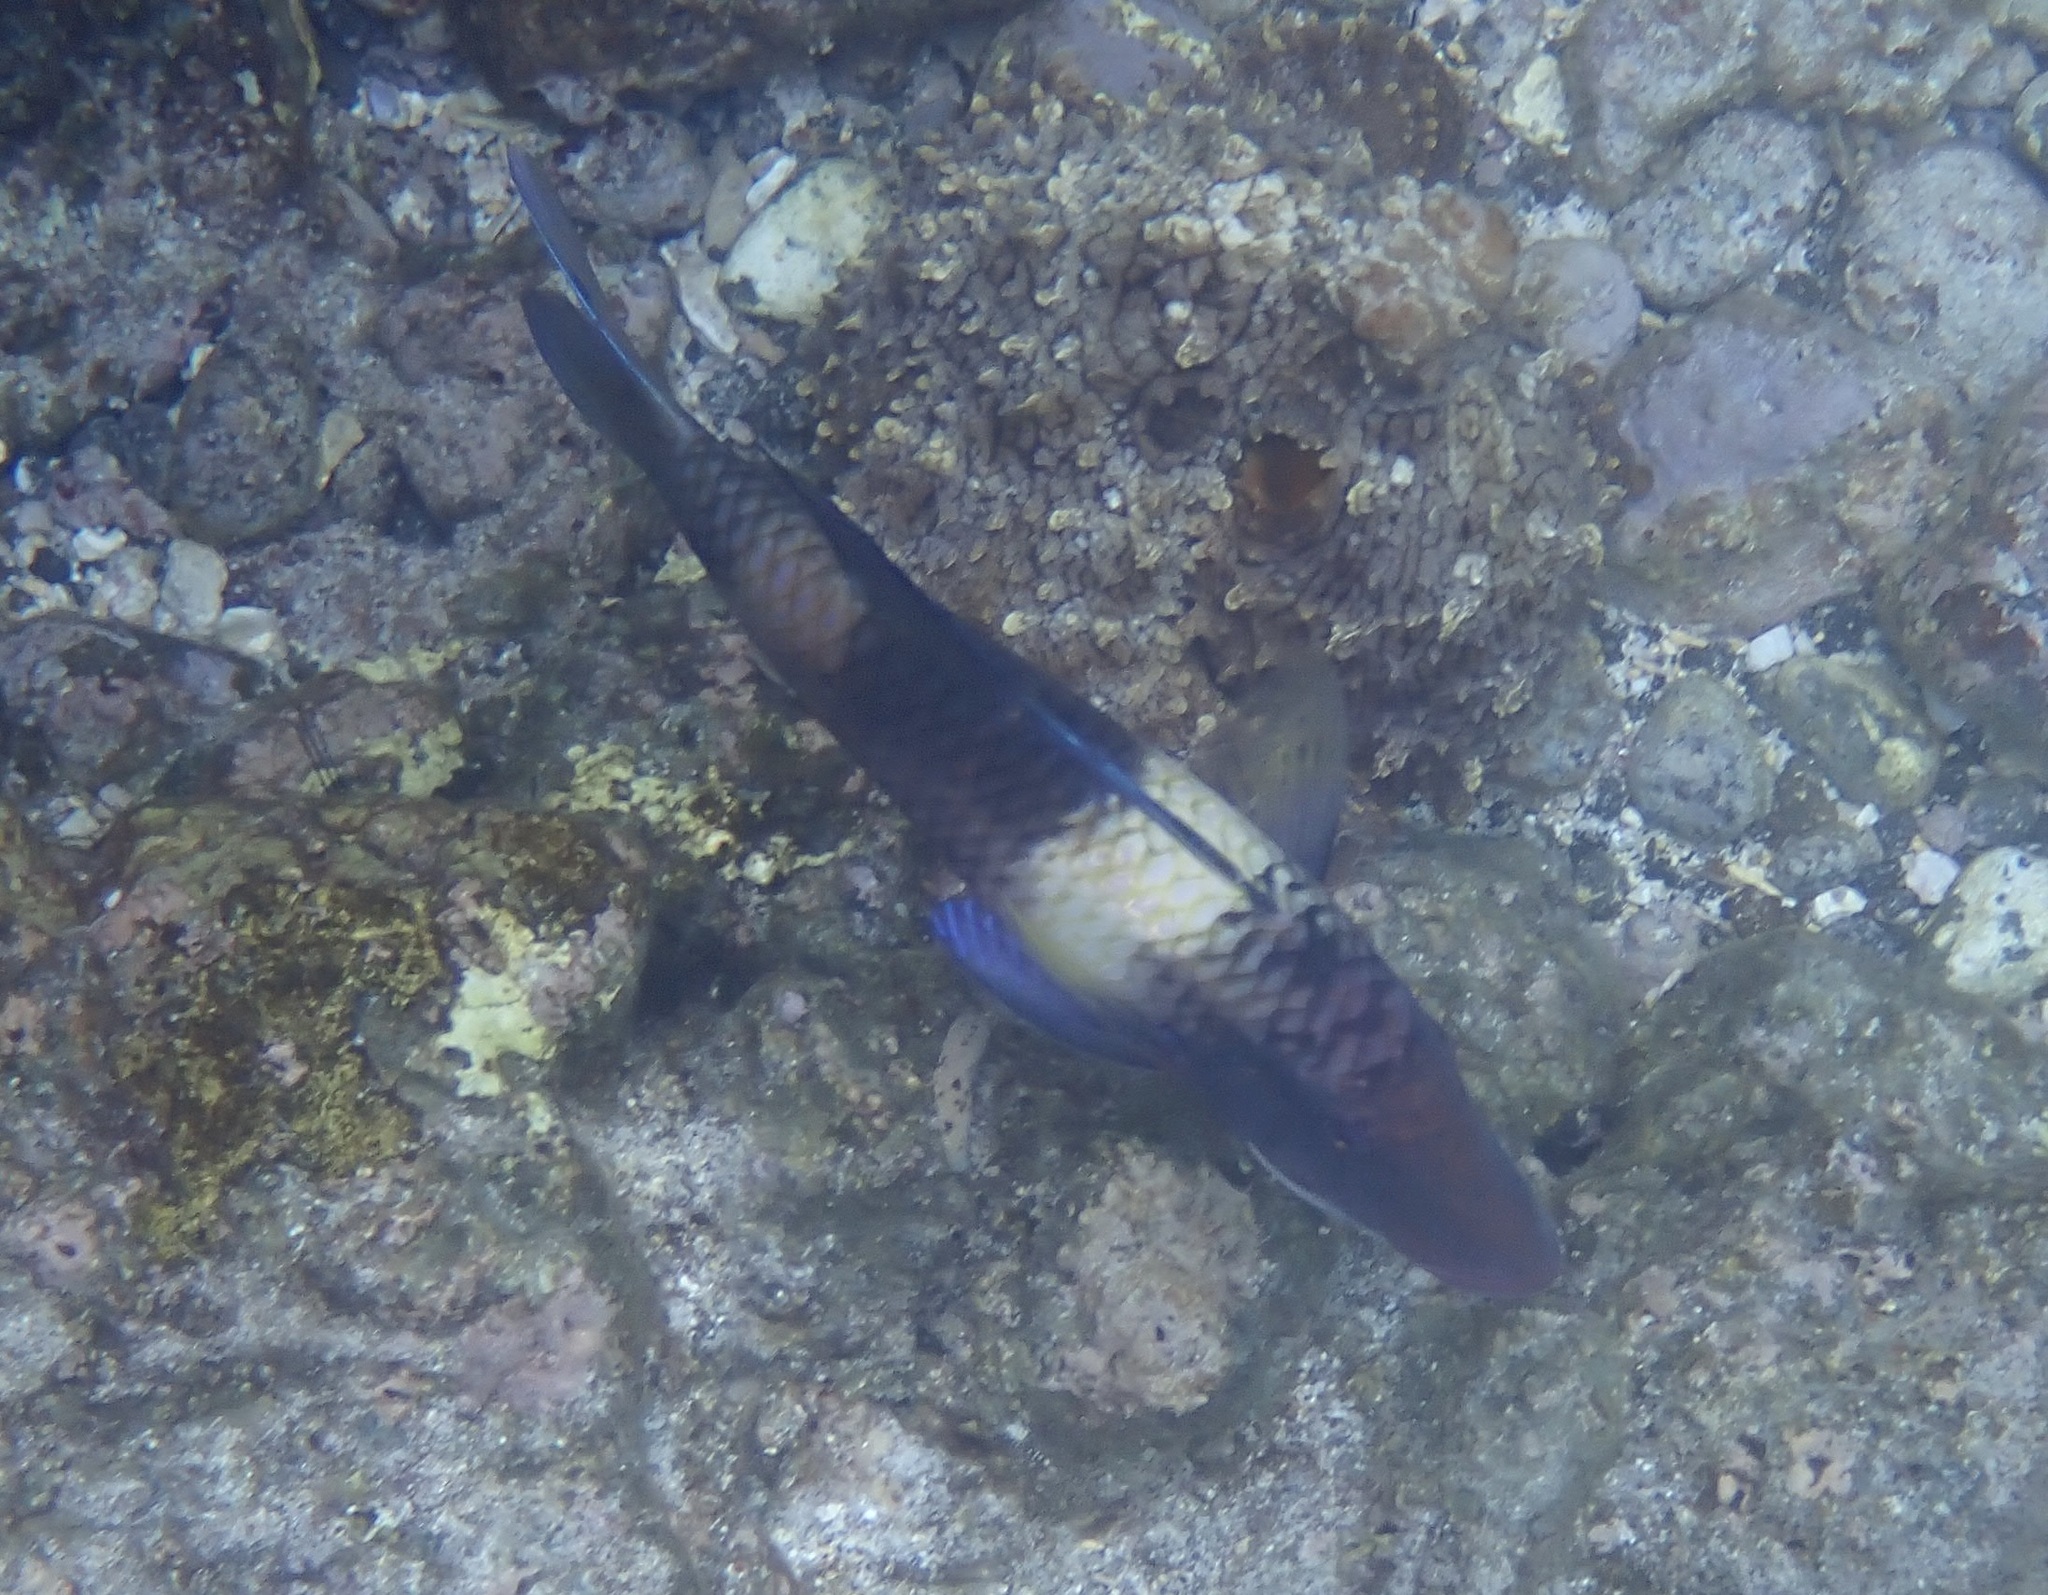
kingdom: Animalia
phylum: Chordata
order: Perciformes
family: Mullidae
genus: Parupeneus
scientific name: Parupeneus multifasciatus
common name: Manybar goatfish
